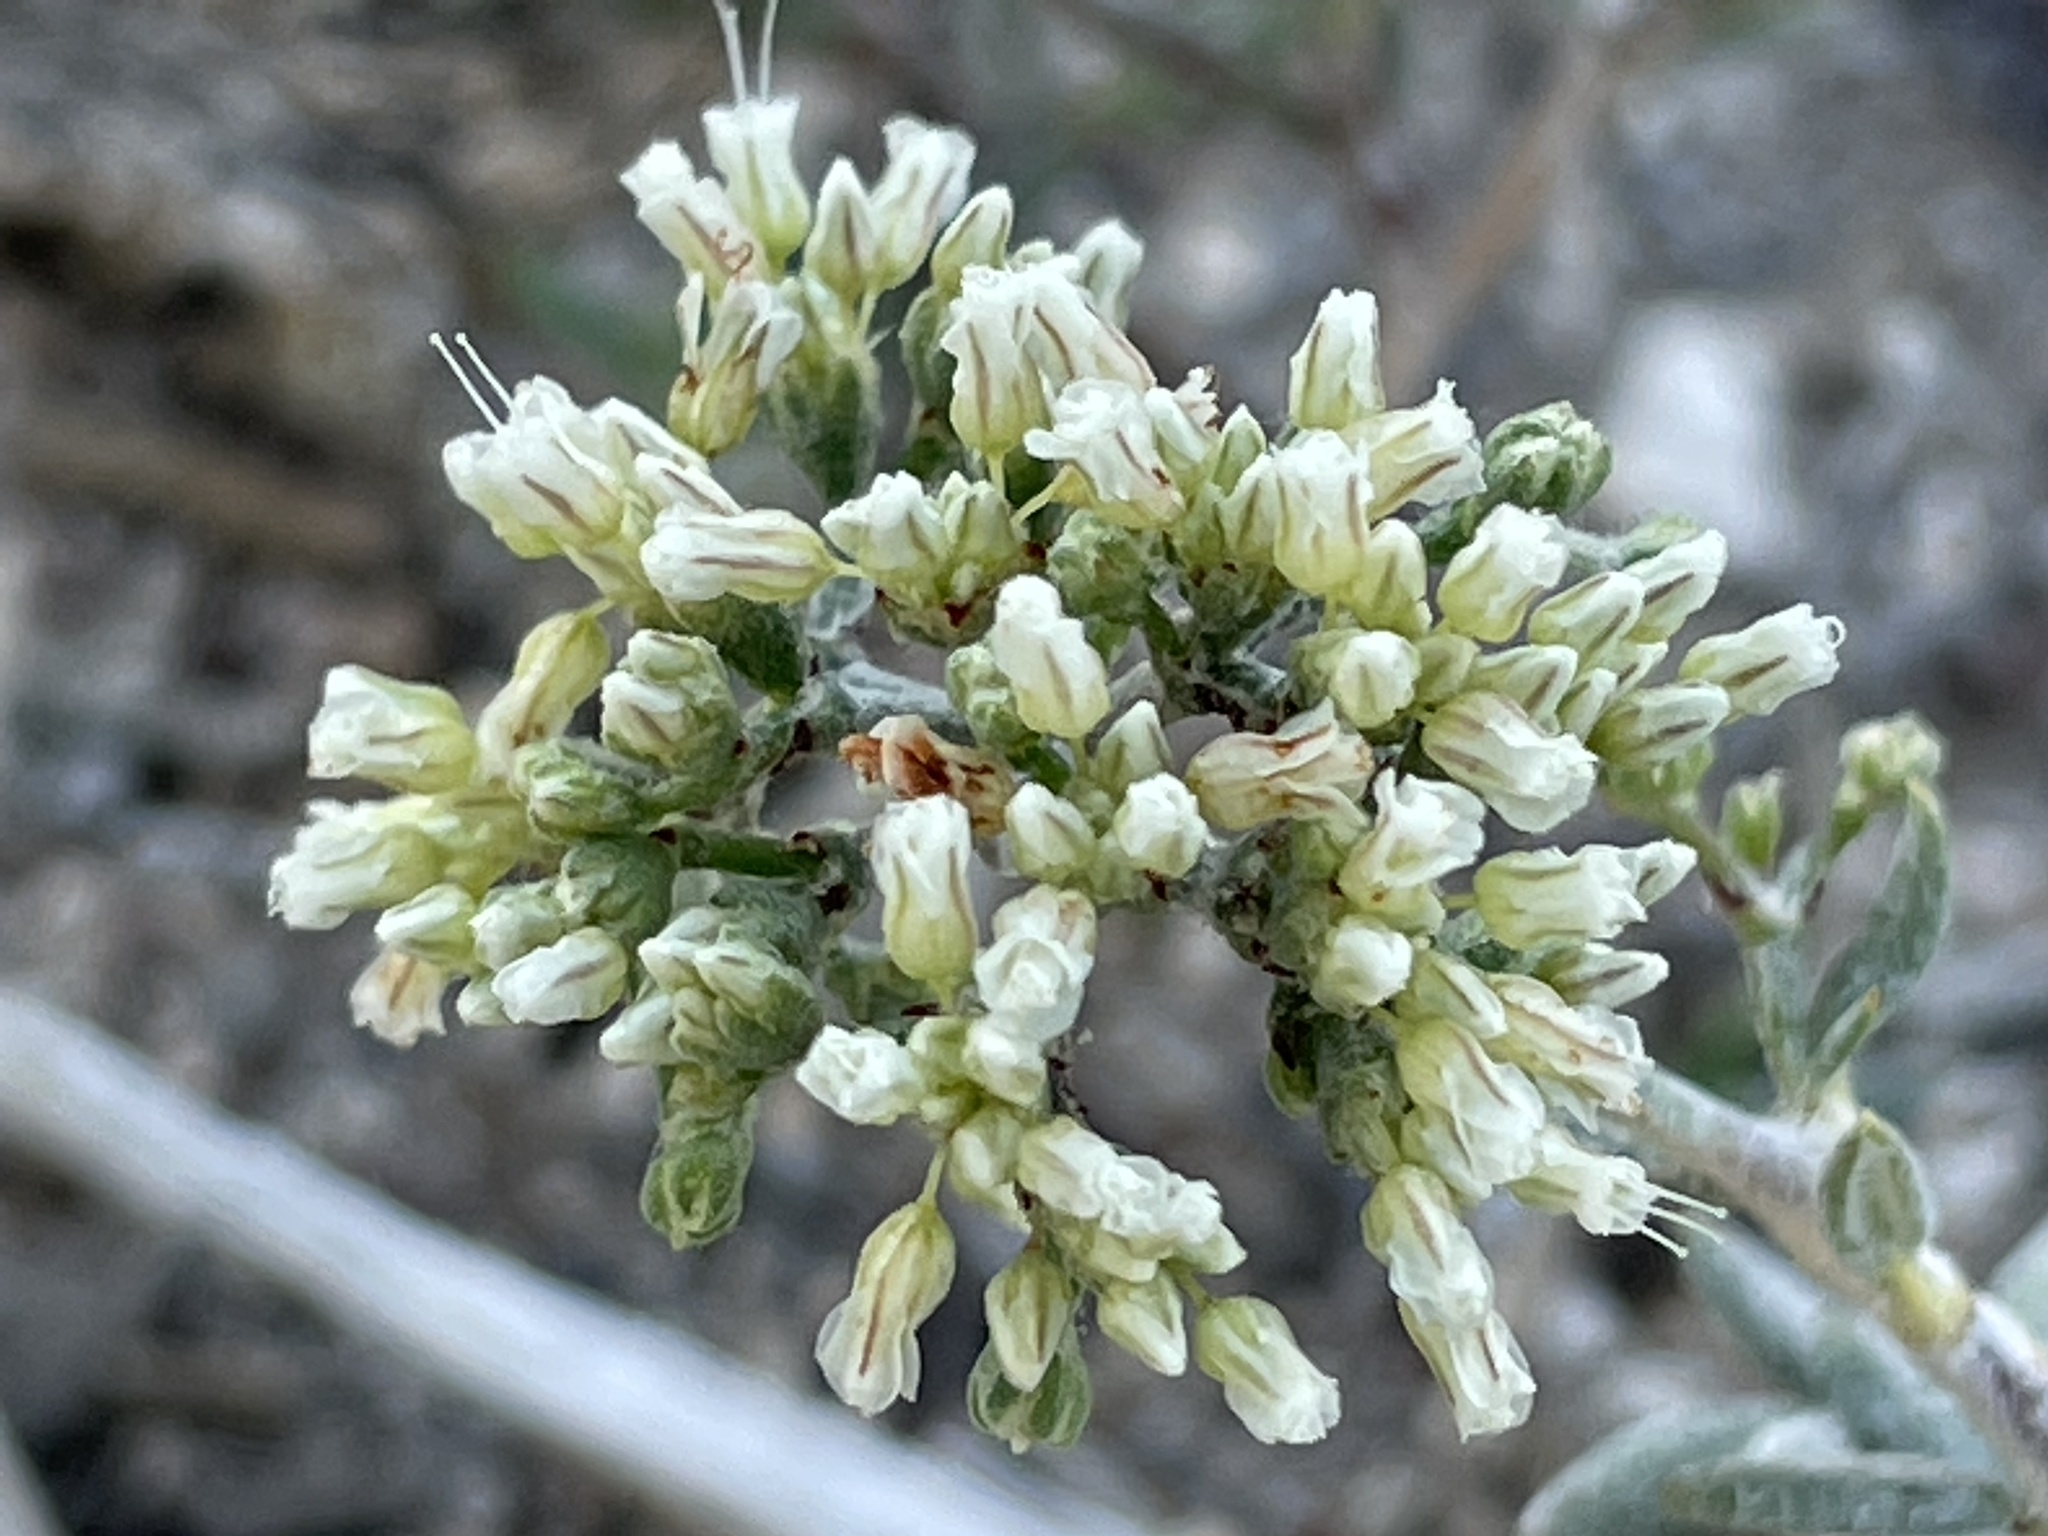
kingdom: Plantae
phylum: Tracheophyta
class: Magnoliopsida
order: Caryophyllales
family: Polygonaceae
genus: Eriogonum
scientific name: Eriogonum microtheca
